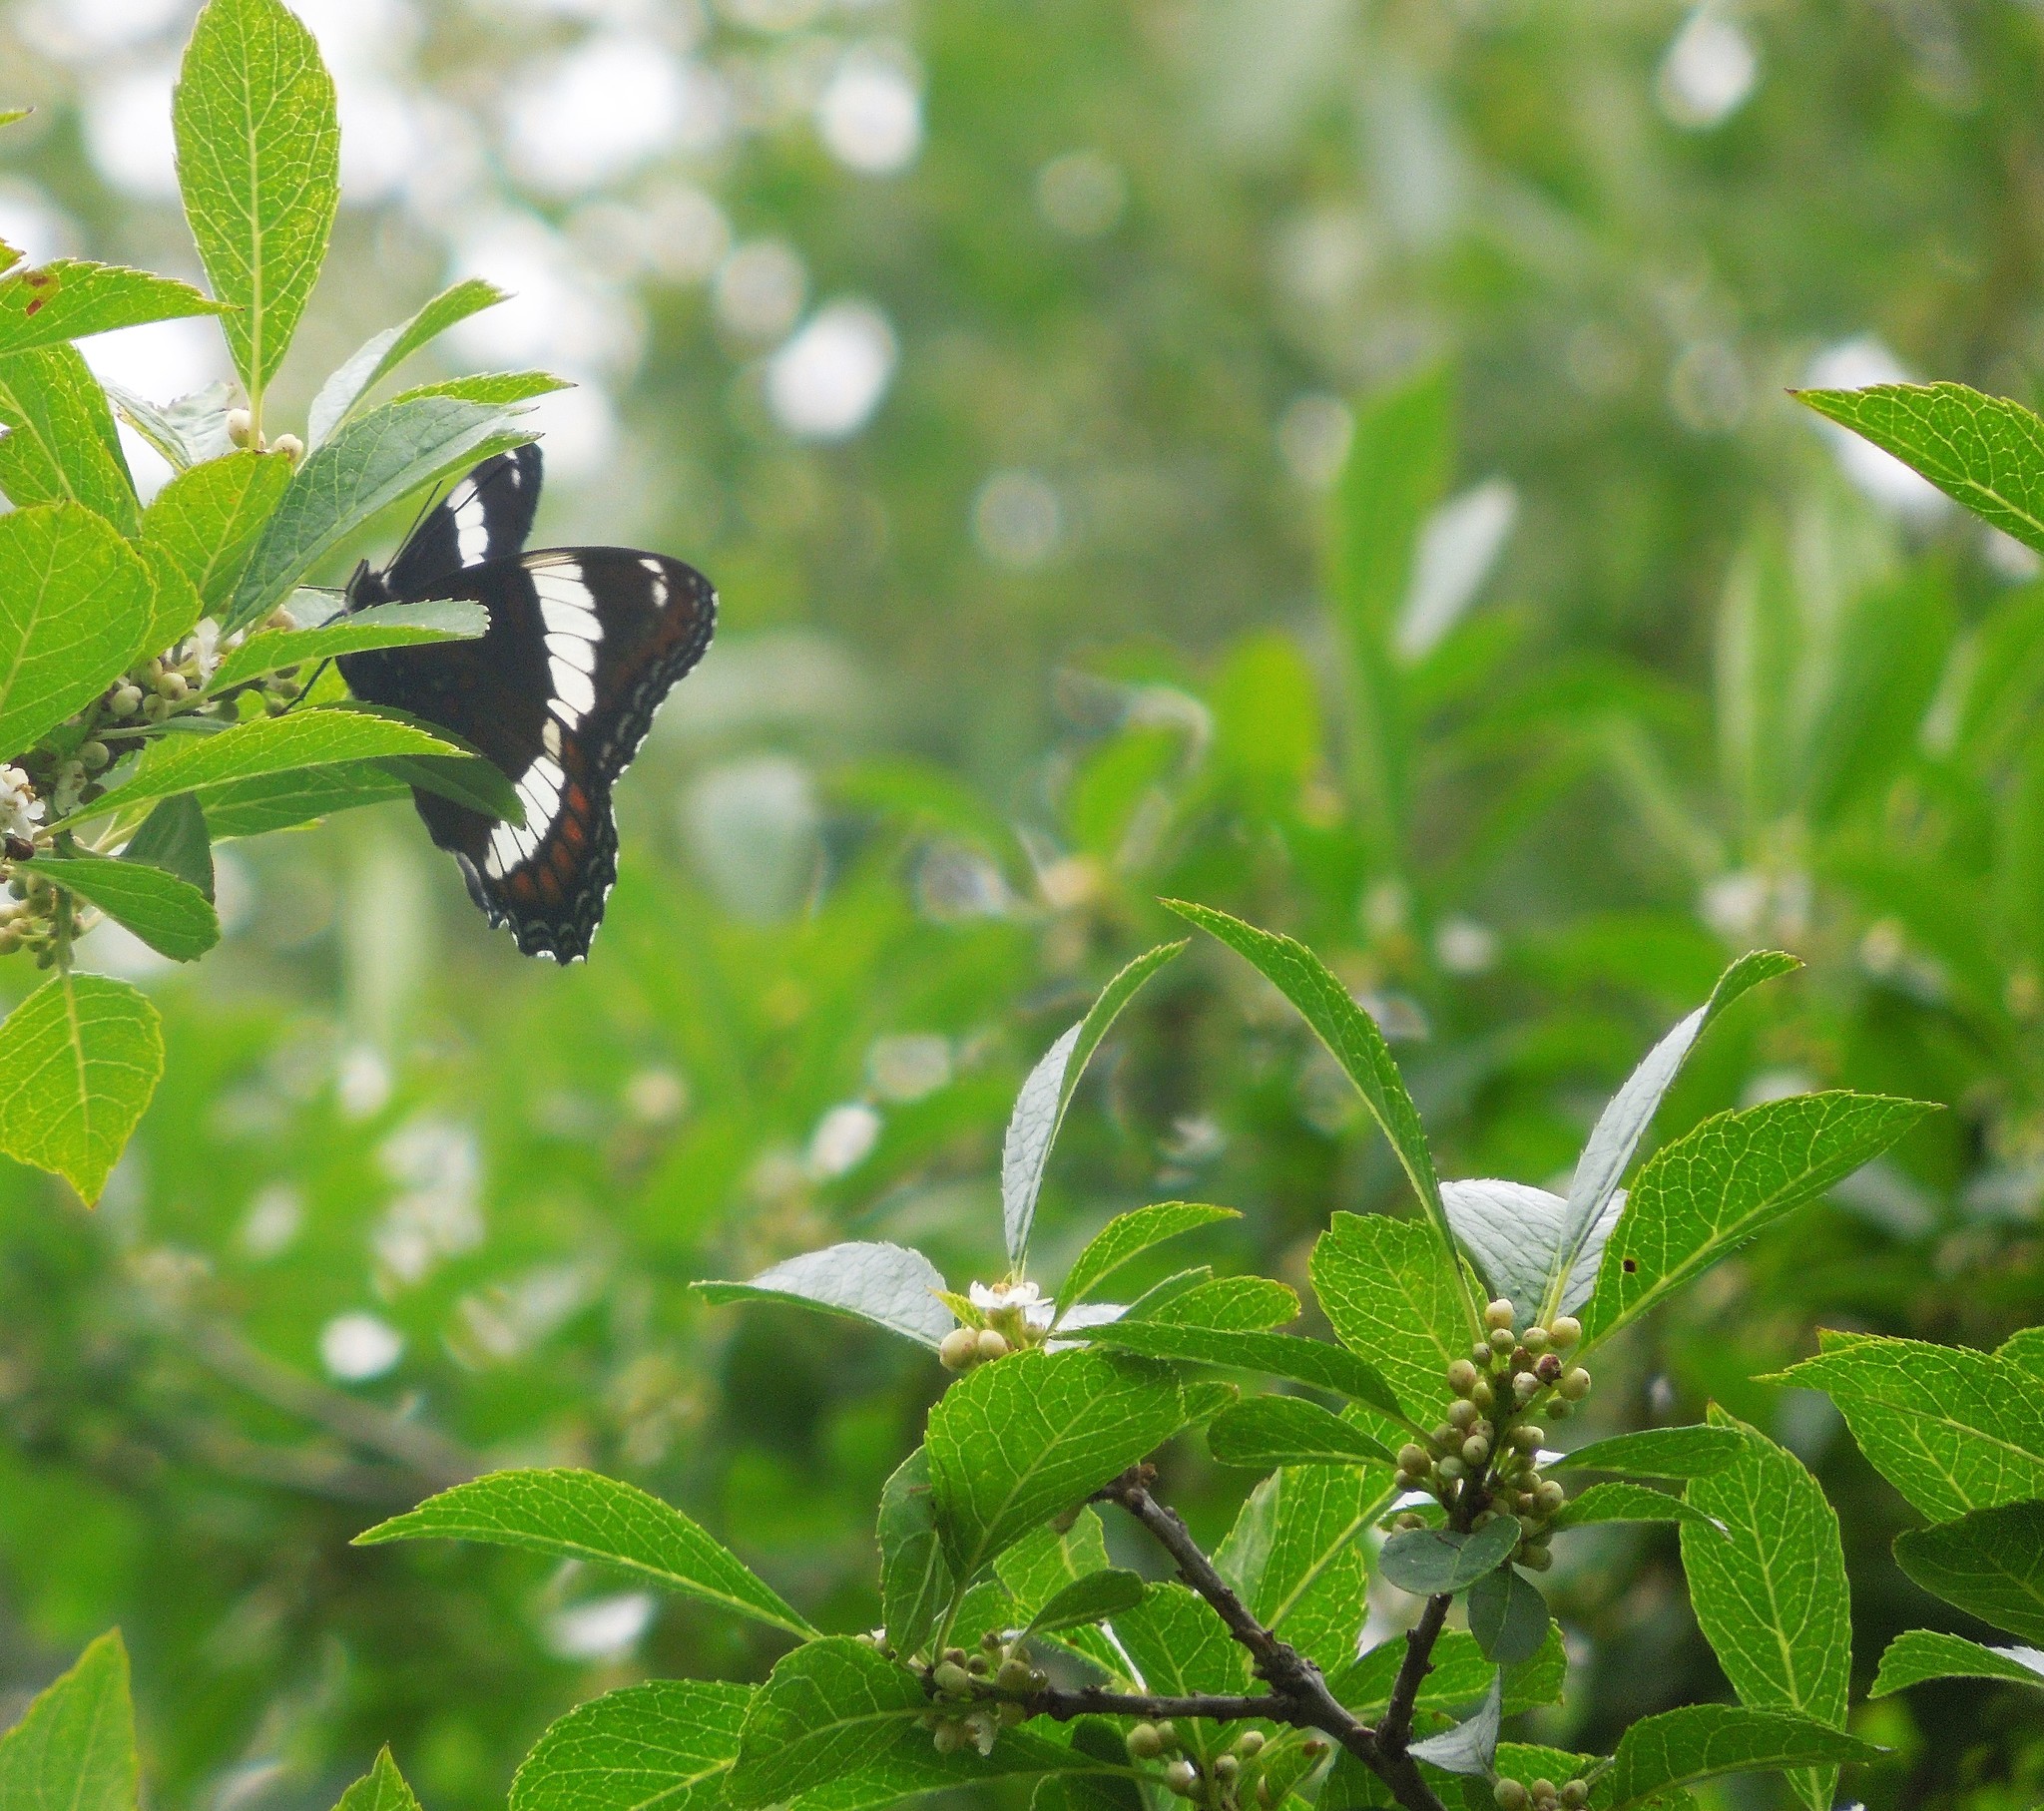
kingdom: Animalia
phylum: Arthropoda
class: Insecta
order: Lepidoptera
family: Nymphalidae
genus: Limenitis
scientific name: Limenitis arthemis
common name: Red-spotted admiral
